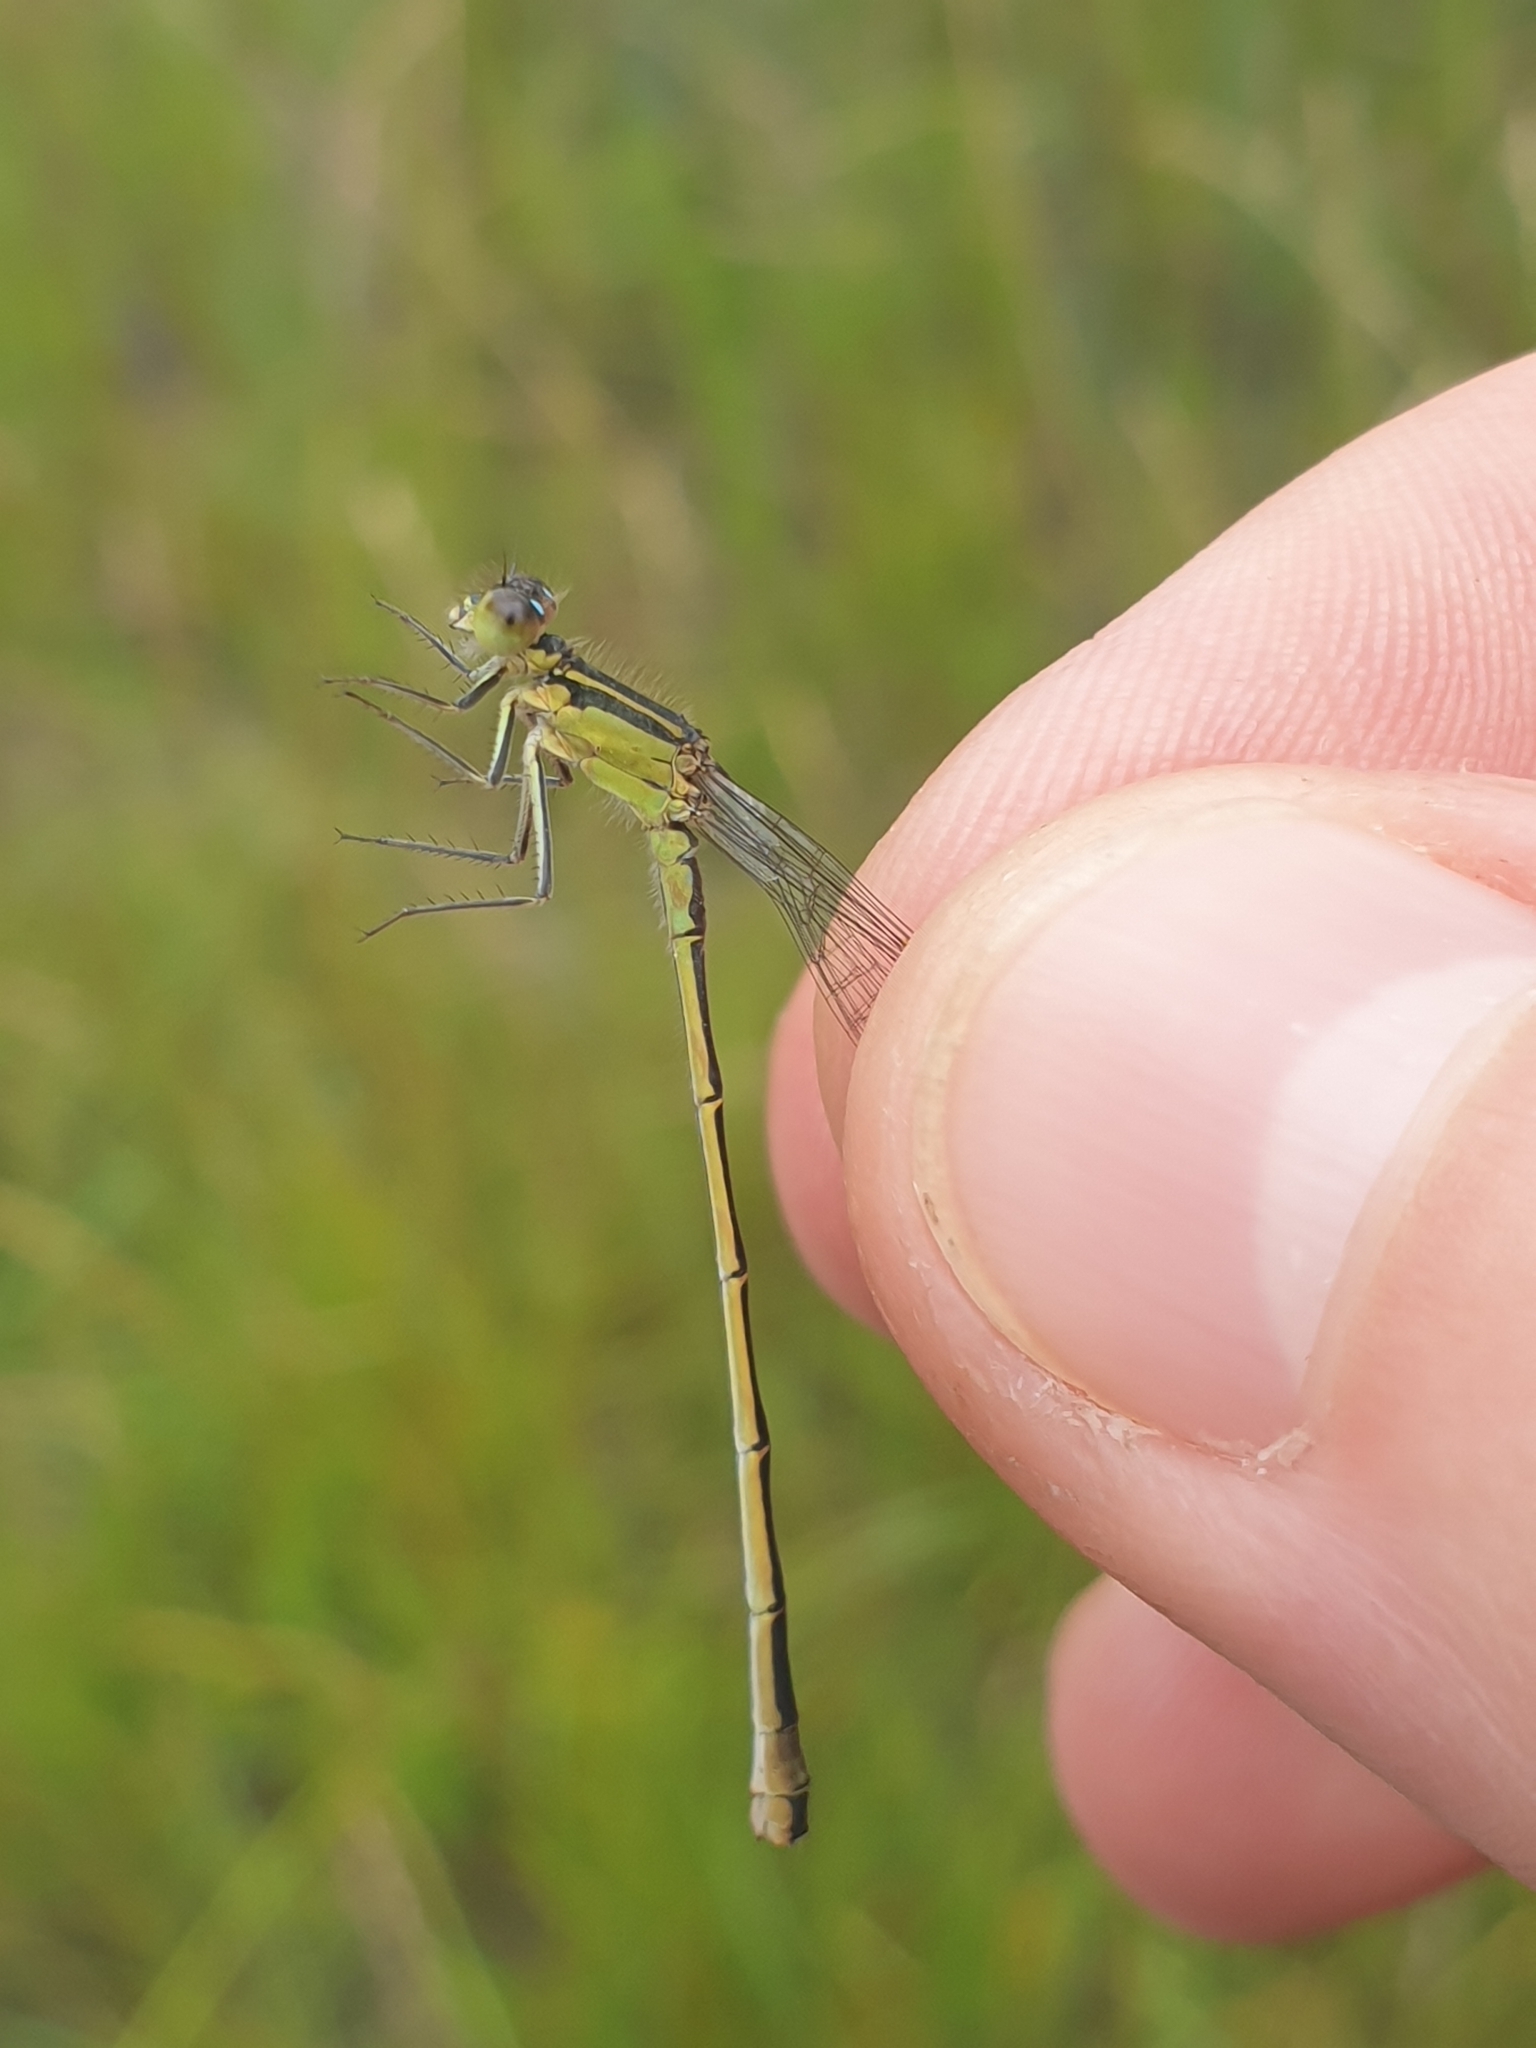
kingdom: Animalia
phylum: Arthropoda
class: Insecta
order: Odonata
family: Coenagrionidae
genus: Ischnura
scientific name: Ischnura elegans
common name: Blue-tailed damselfly
